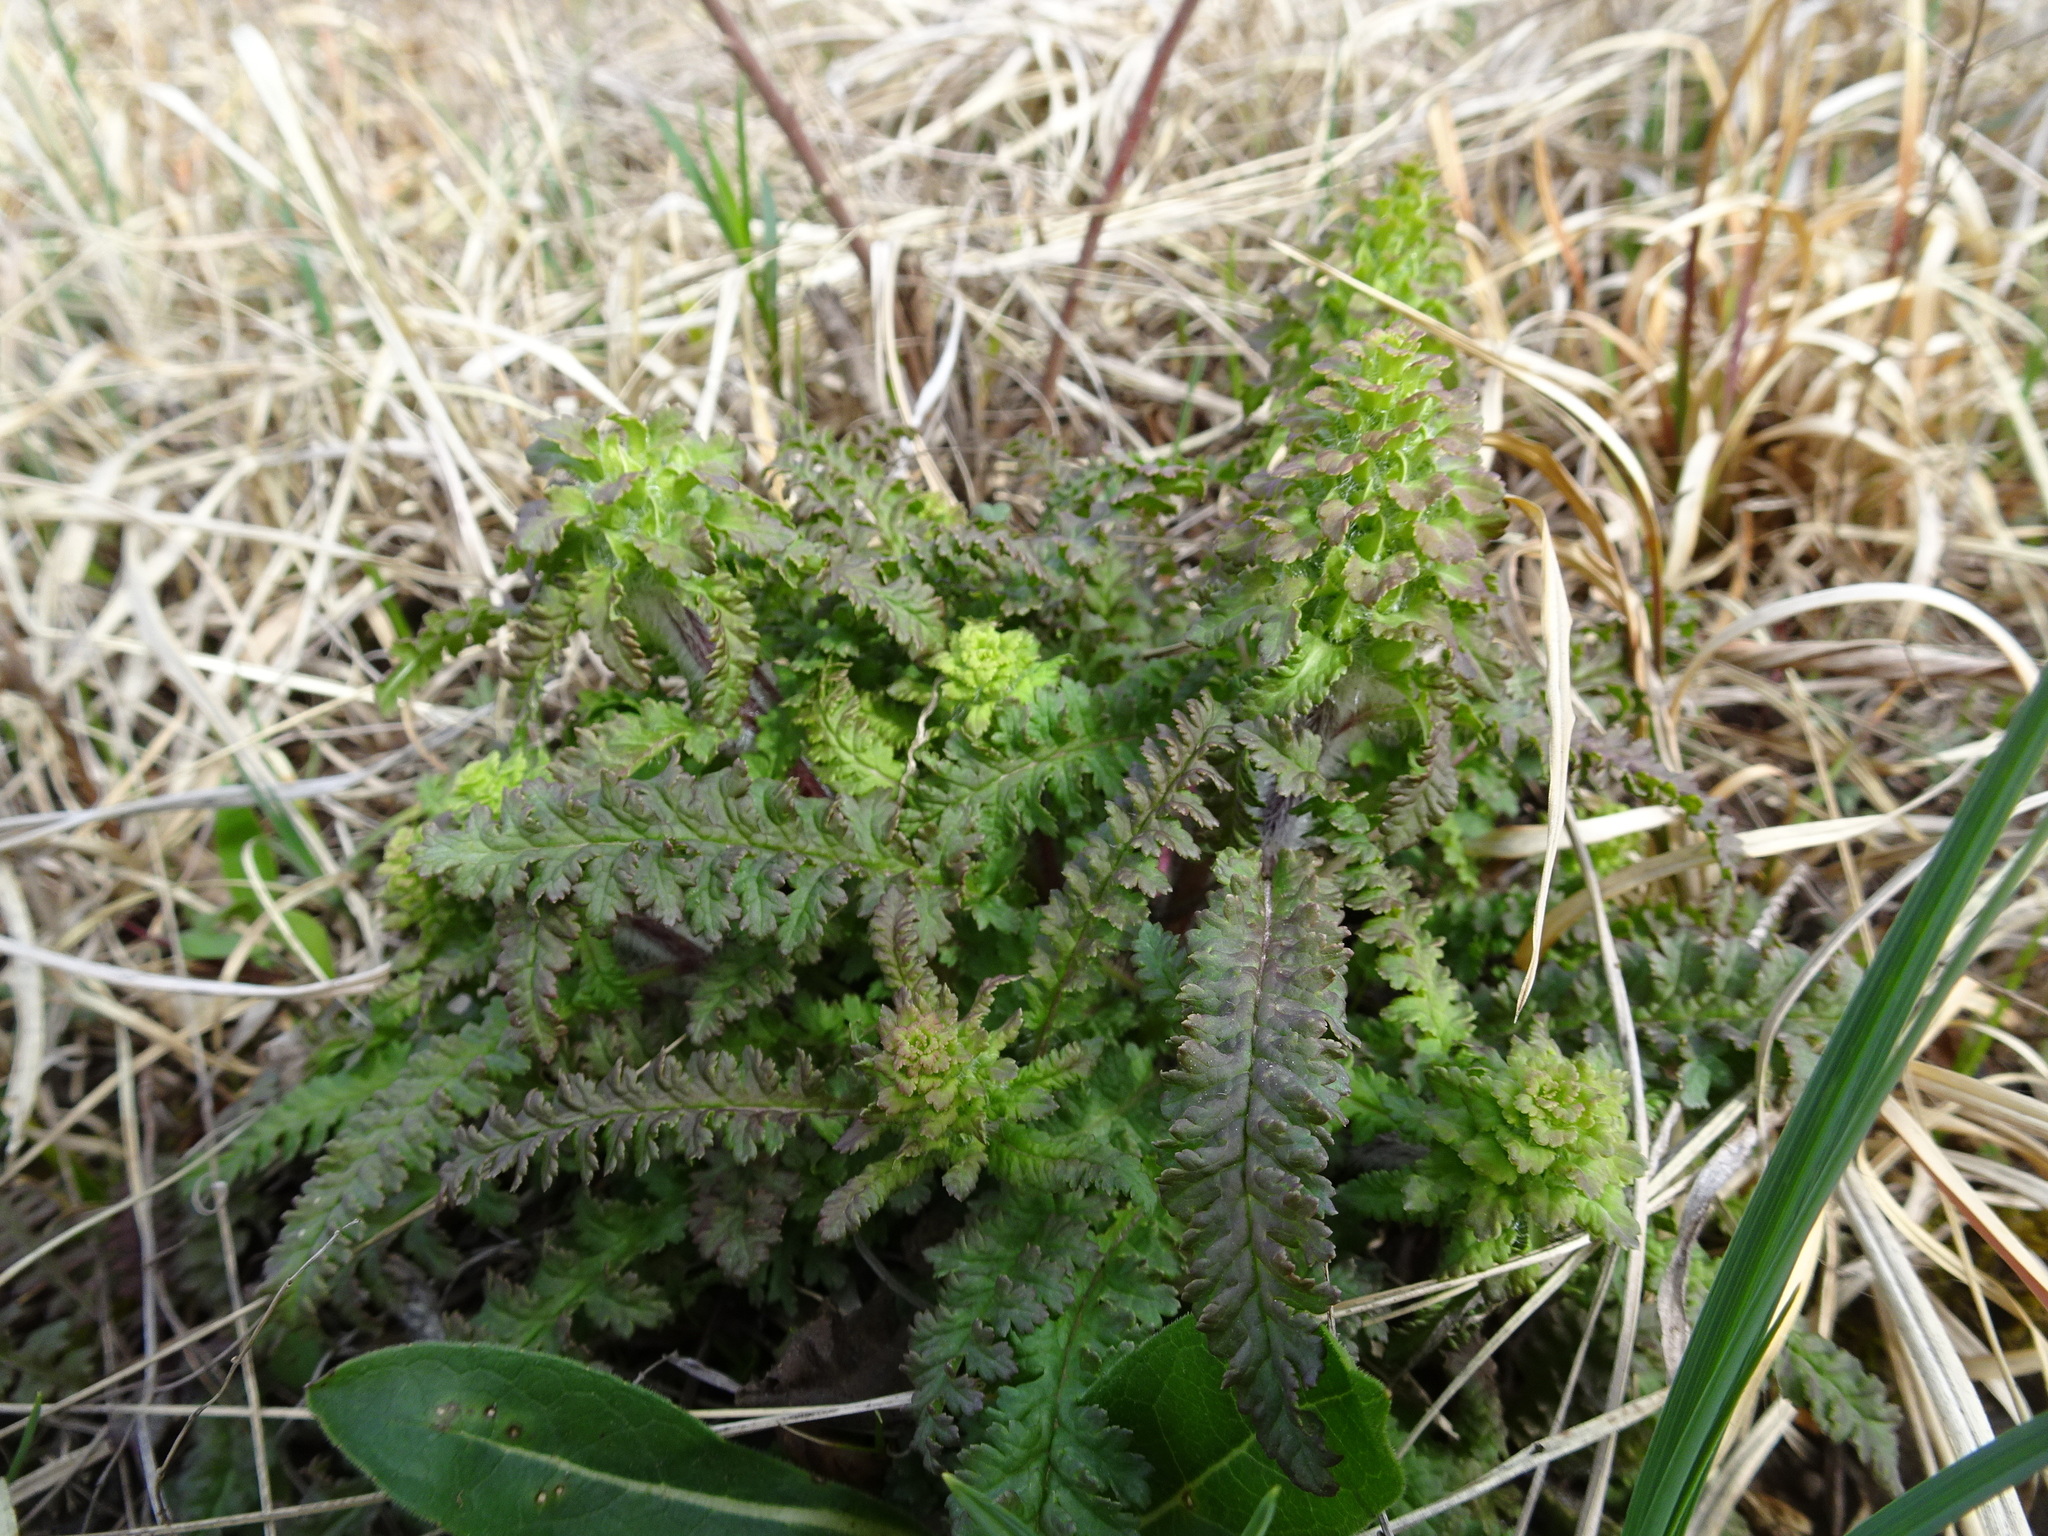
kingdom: Plantae
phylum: Tracheophyta
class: Magnoliopsida
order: Lamiales
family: Orobanchaceae
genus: Pedicularis
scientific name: Pedicularis canadensis
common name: Early lousewort
